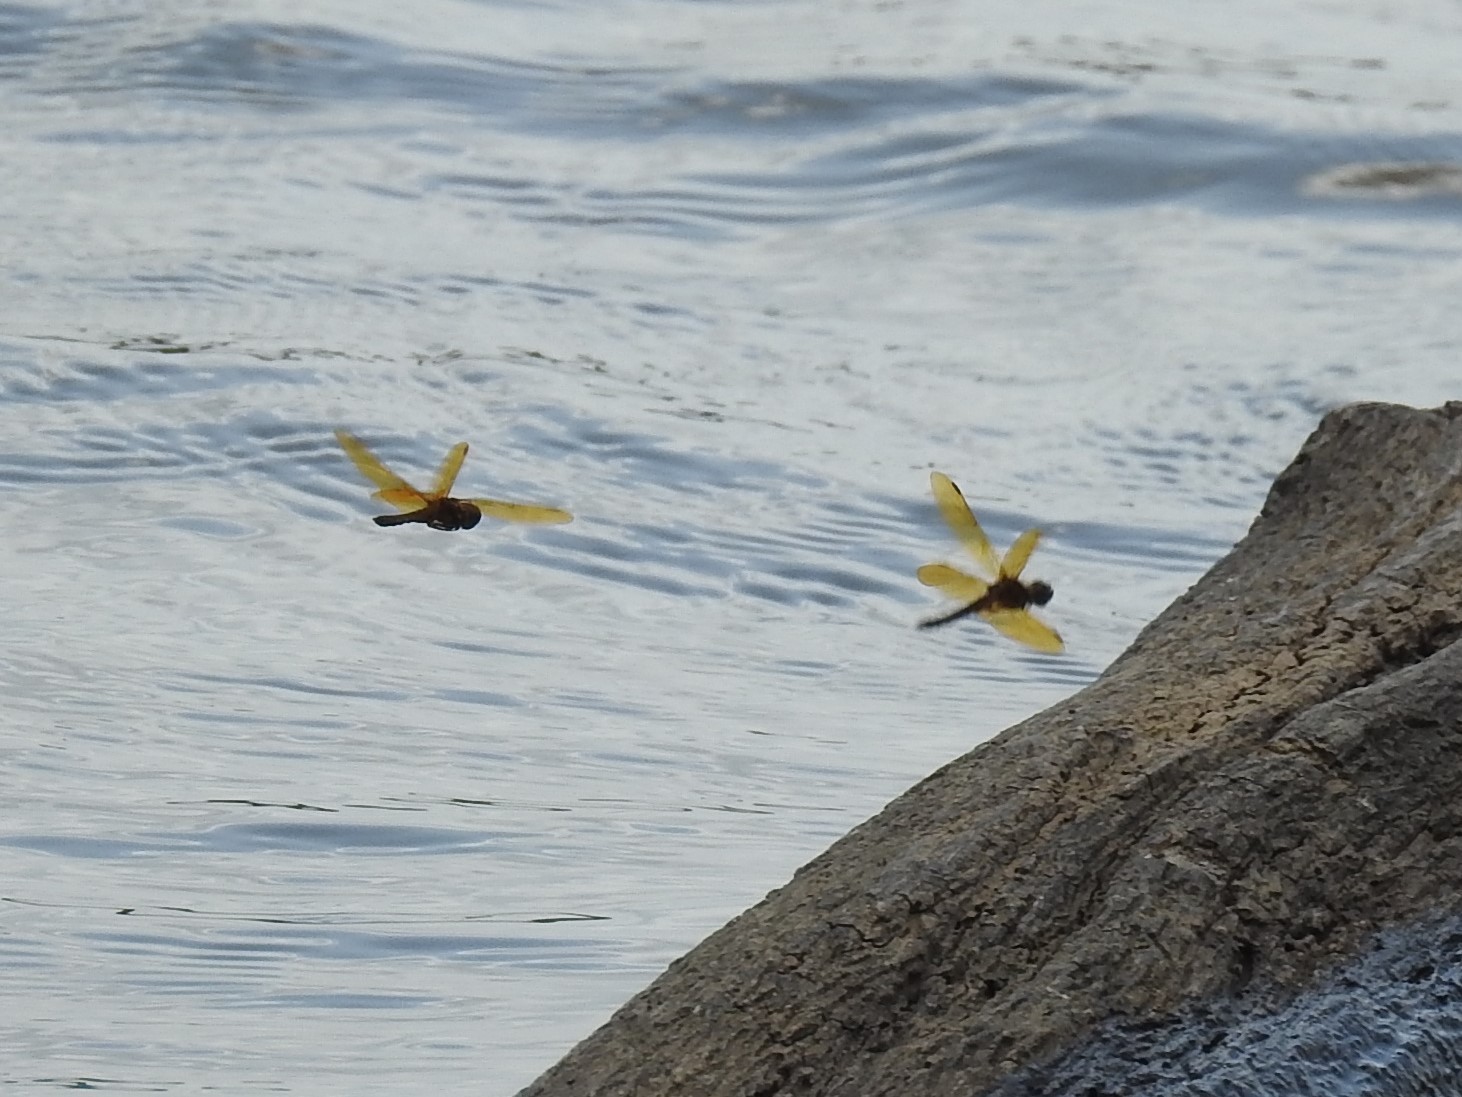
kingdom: Animalia
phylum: Arthropoda
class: Insecta
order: Odonata
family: Libellulidae
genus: Perithemis
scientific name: Perithemis tenera
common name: Eastern amberwing
